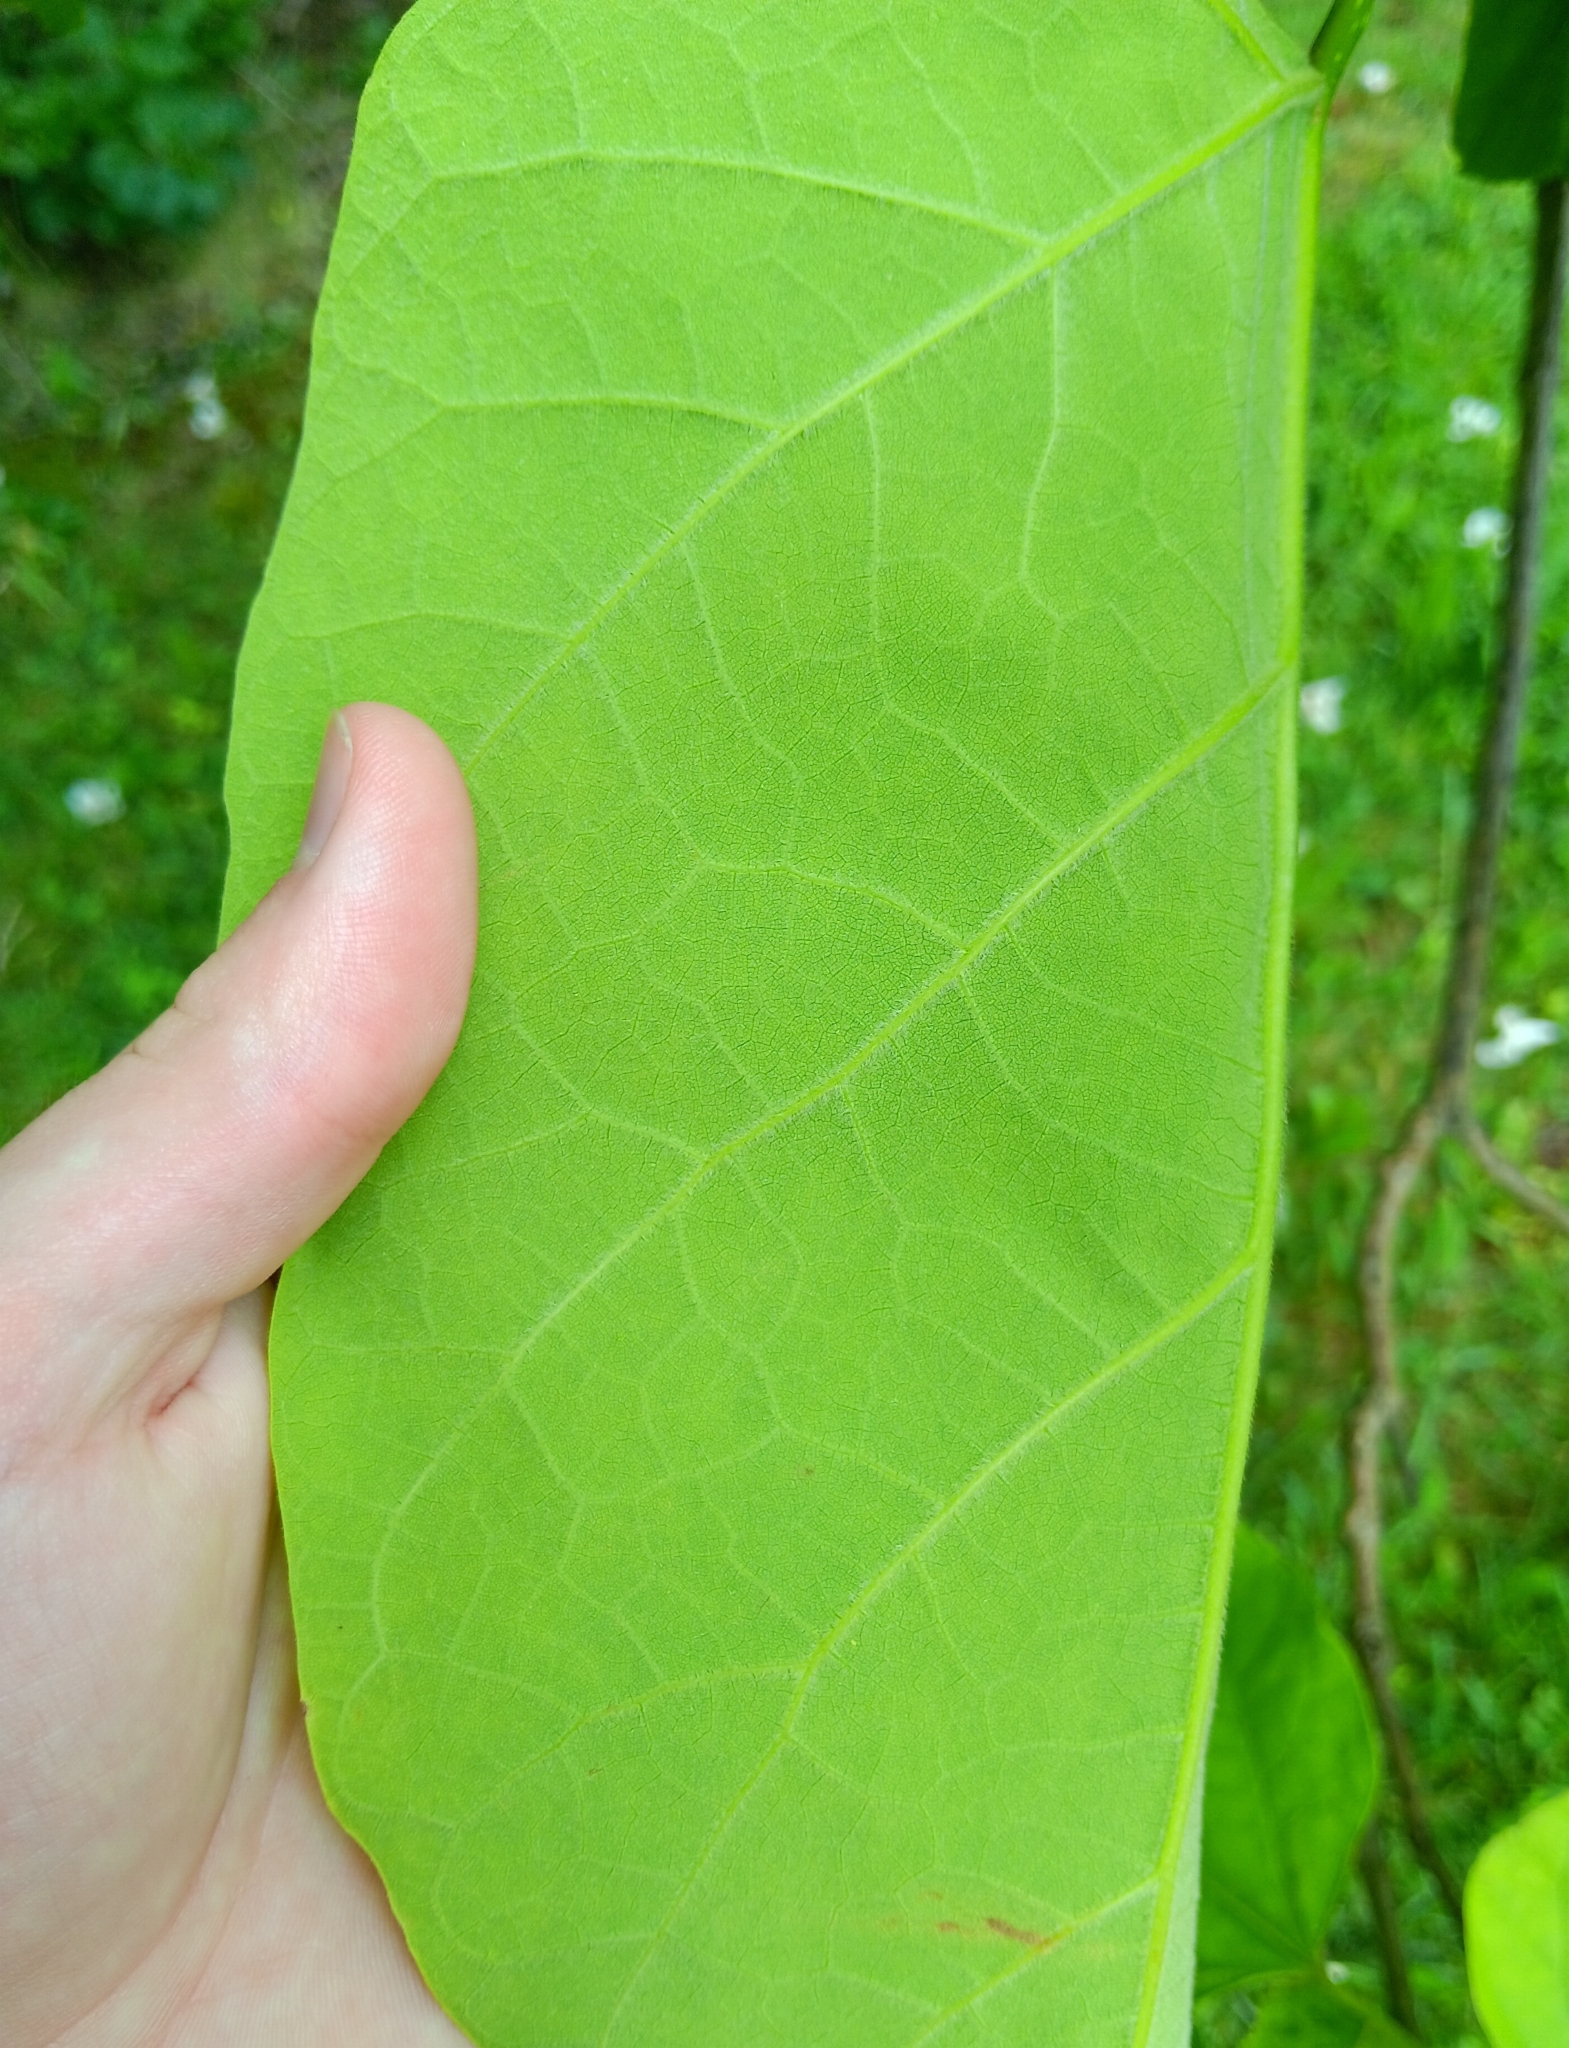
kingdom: Plantae
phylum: Tracheophyta
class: Magnoliopsida
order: Lamiales
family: Bignoniaceae
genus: Catalpa
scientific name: Catalpa speciosa
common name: Northern catalpa
